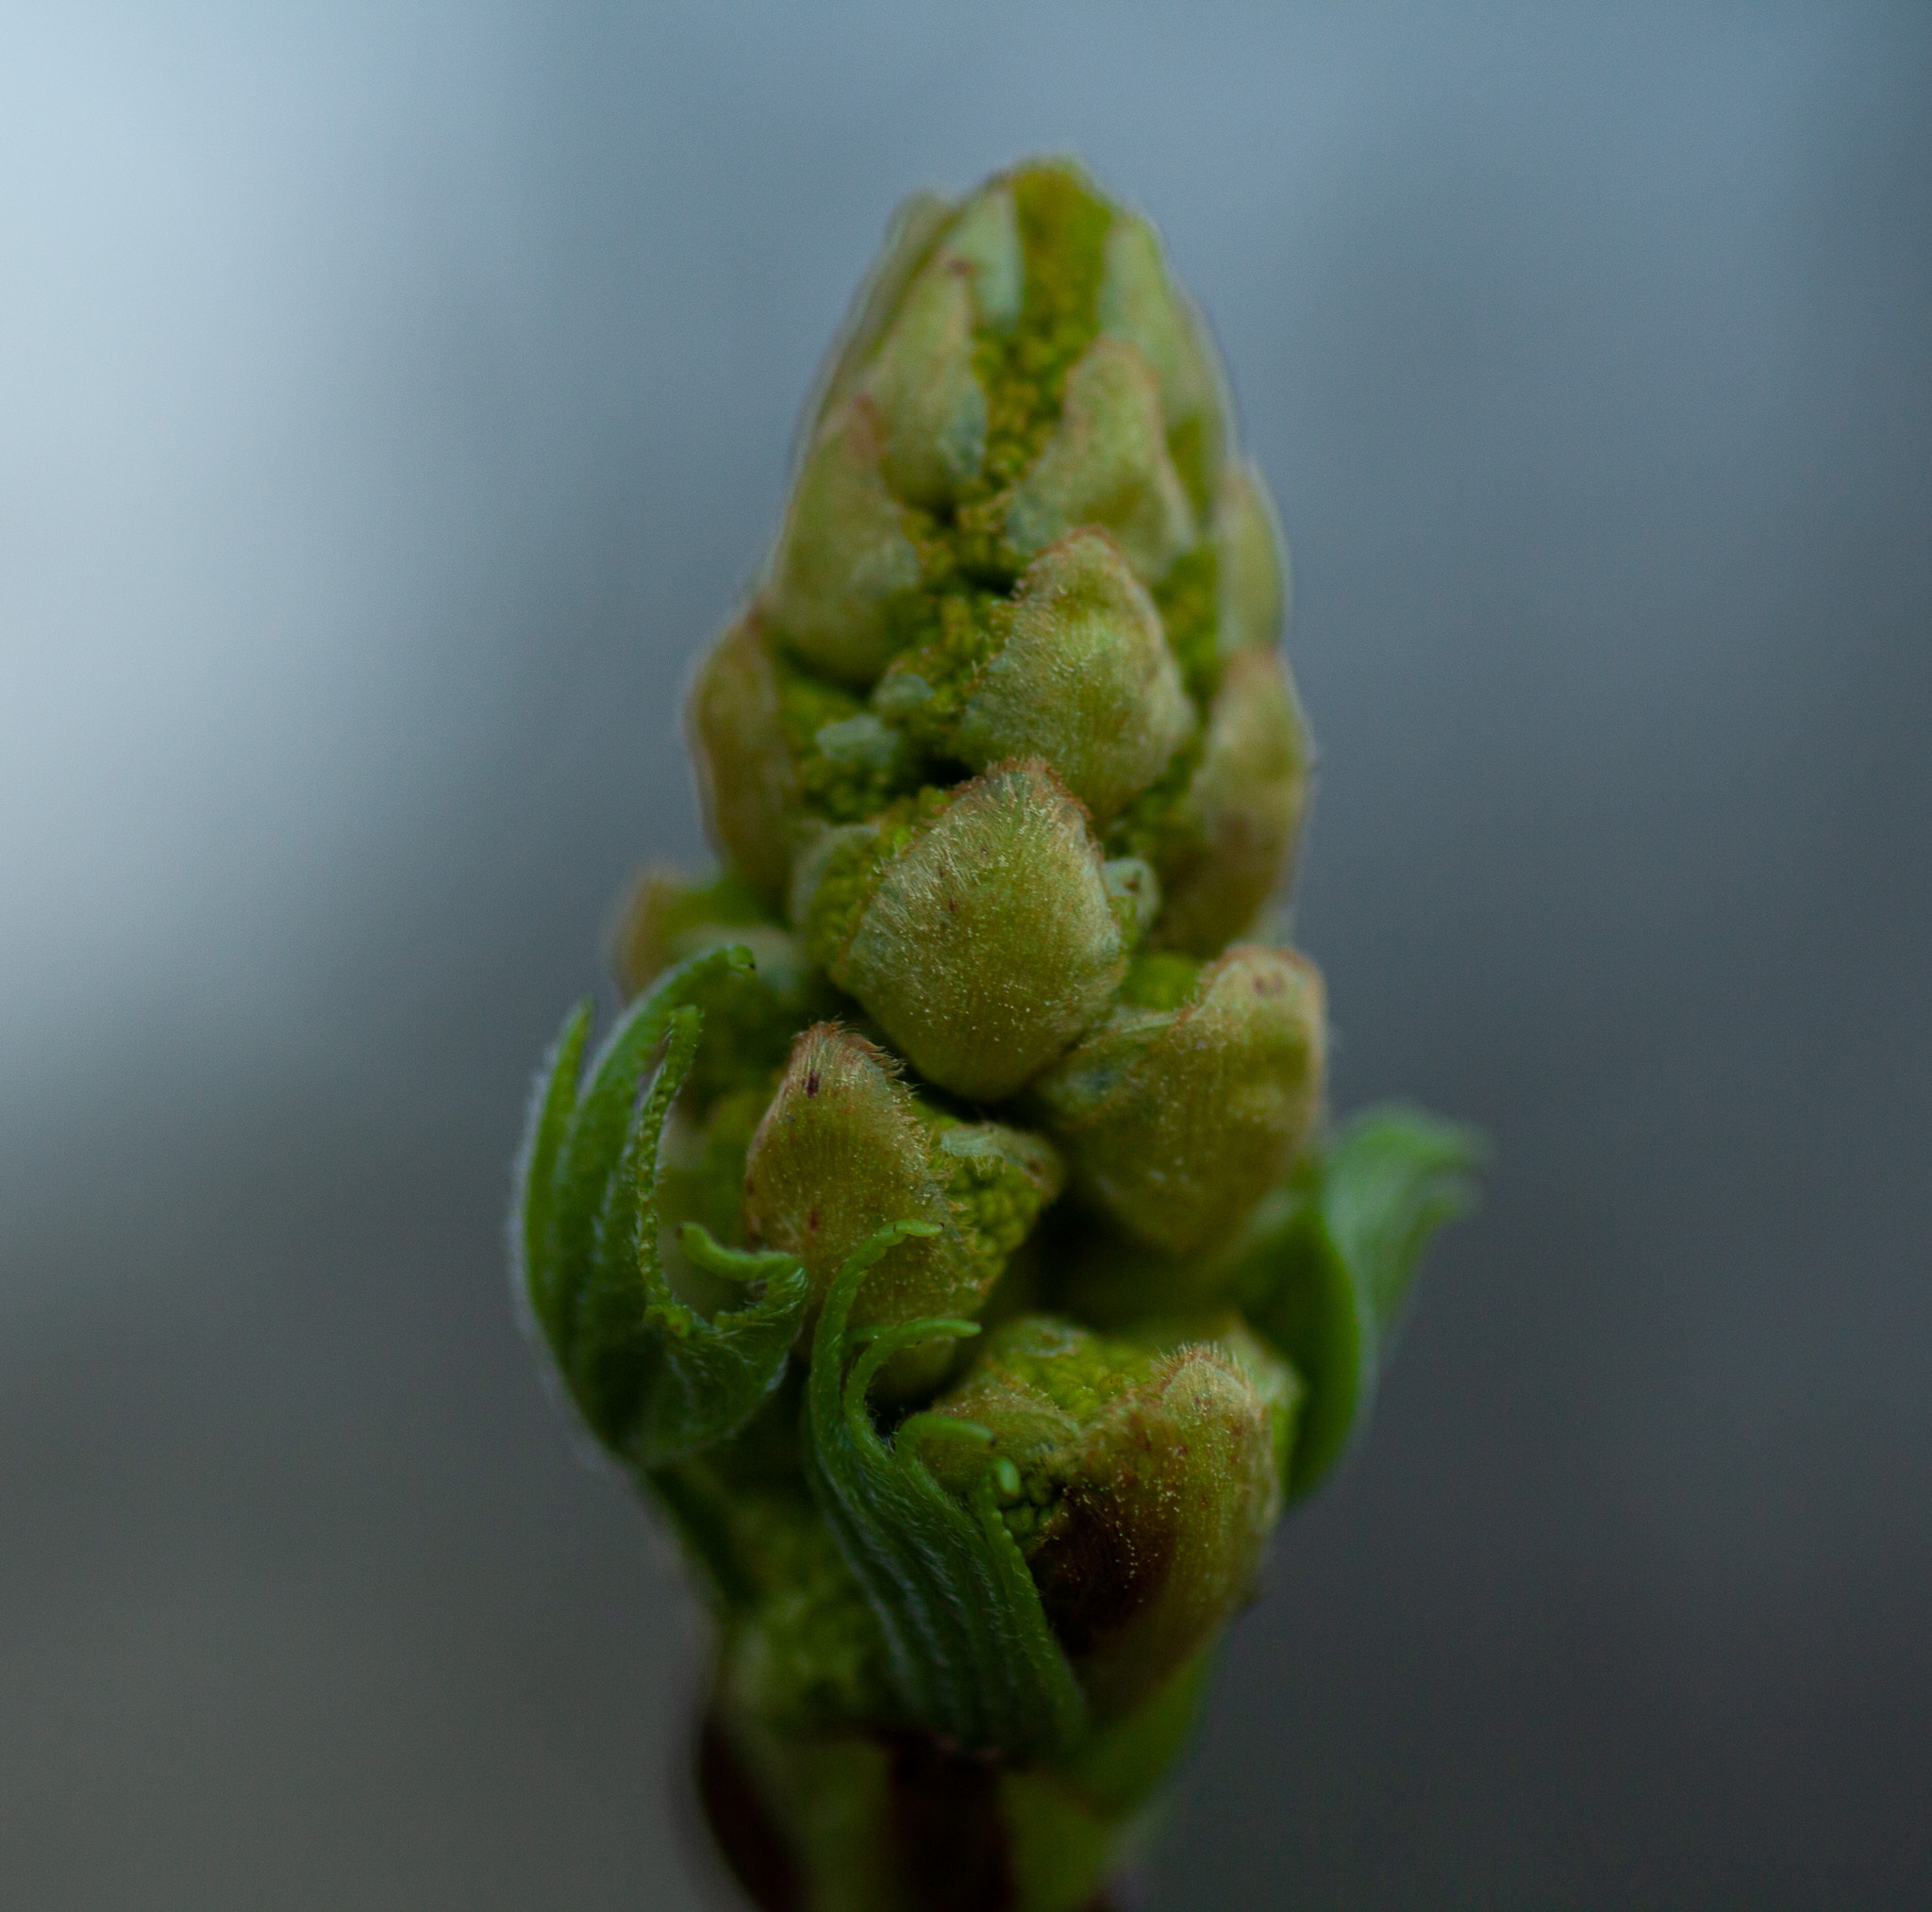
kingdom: Plantae
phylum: Tracheophyta
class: Magnoliopsida
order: Saxifragales
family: Altingiaceae
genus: Liquidambar
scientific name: Liquidambar styraciflua
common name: Sweet gum
